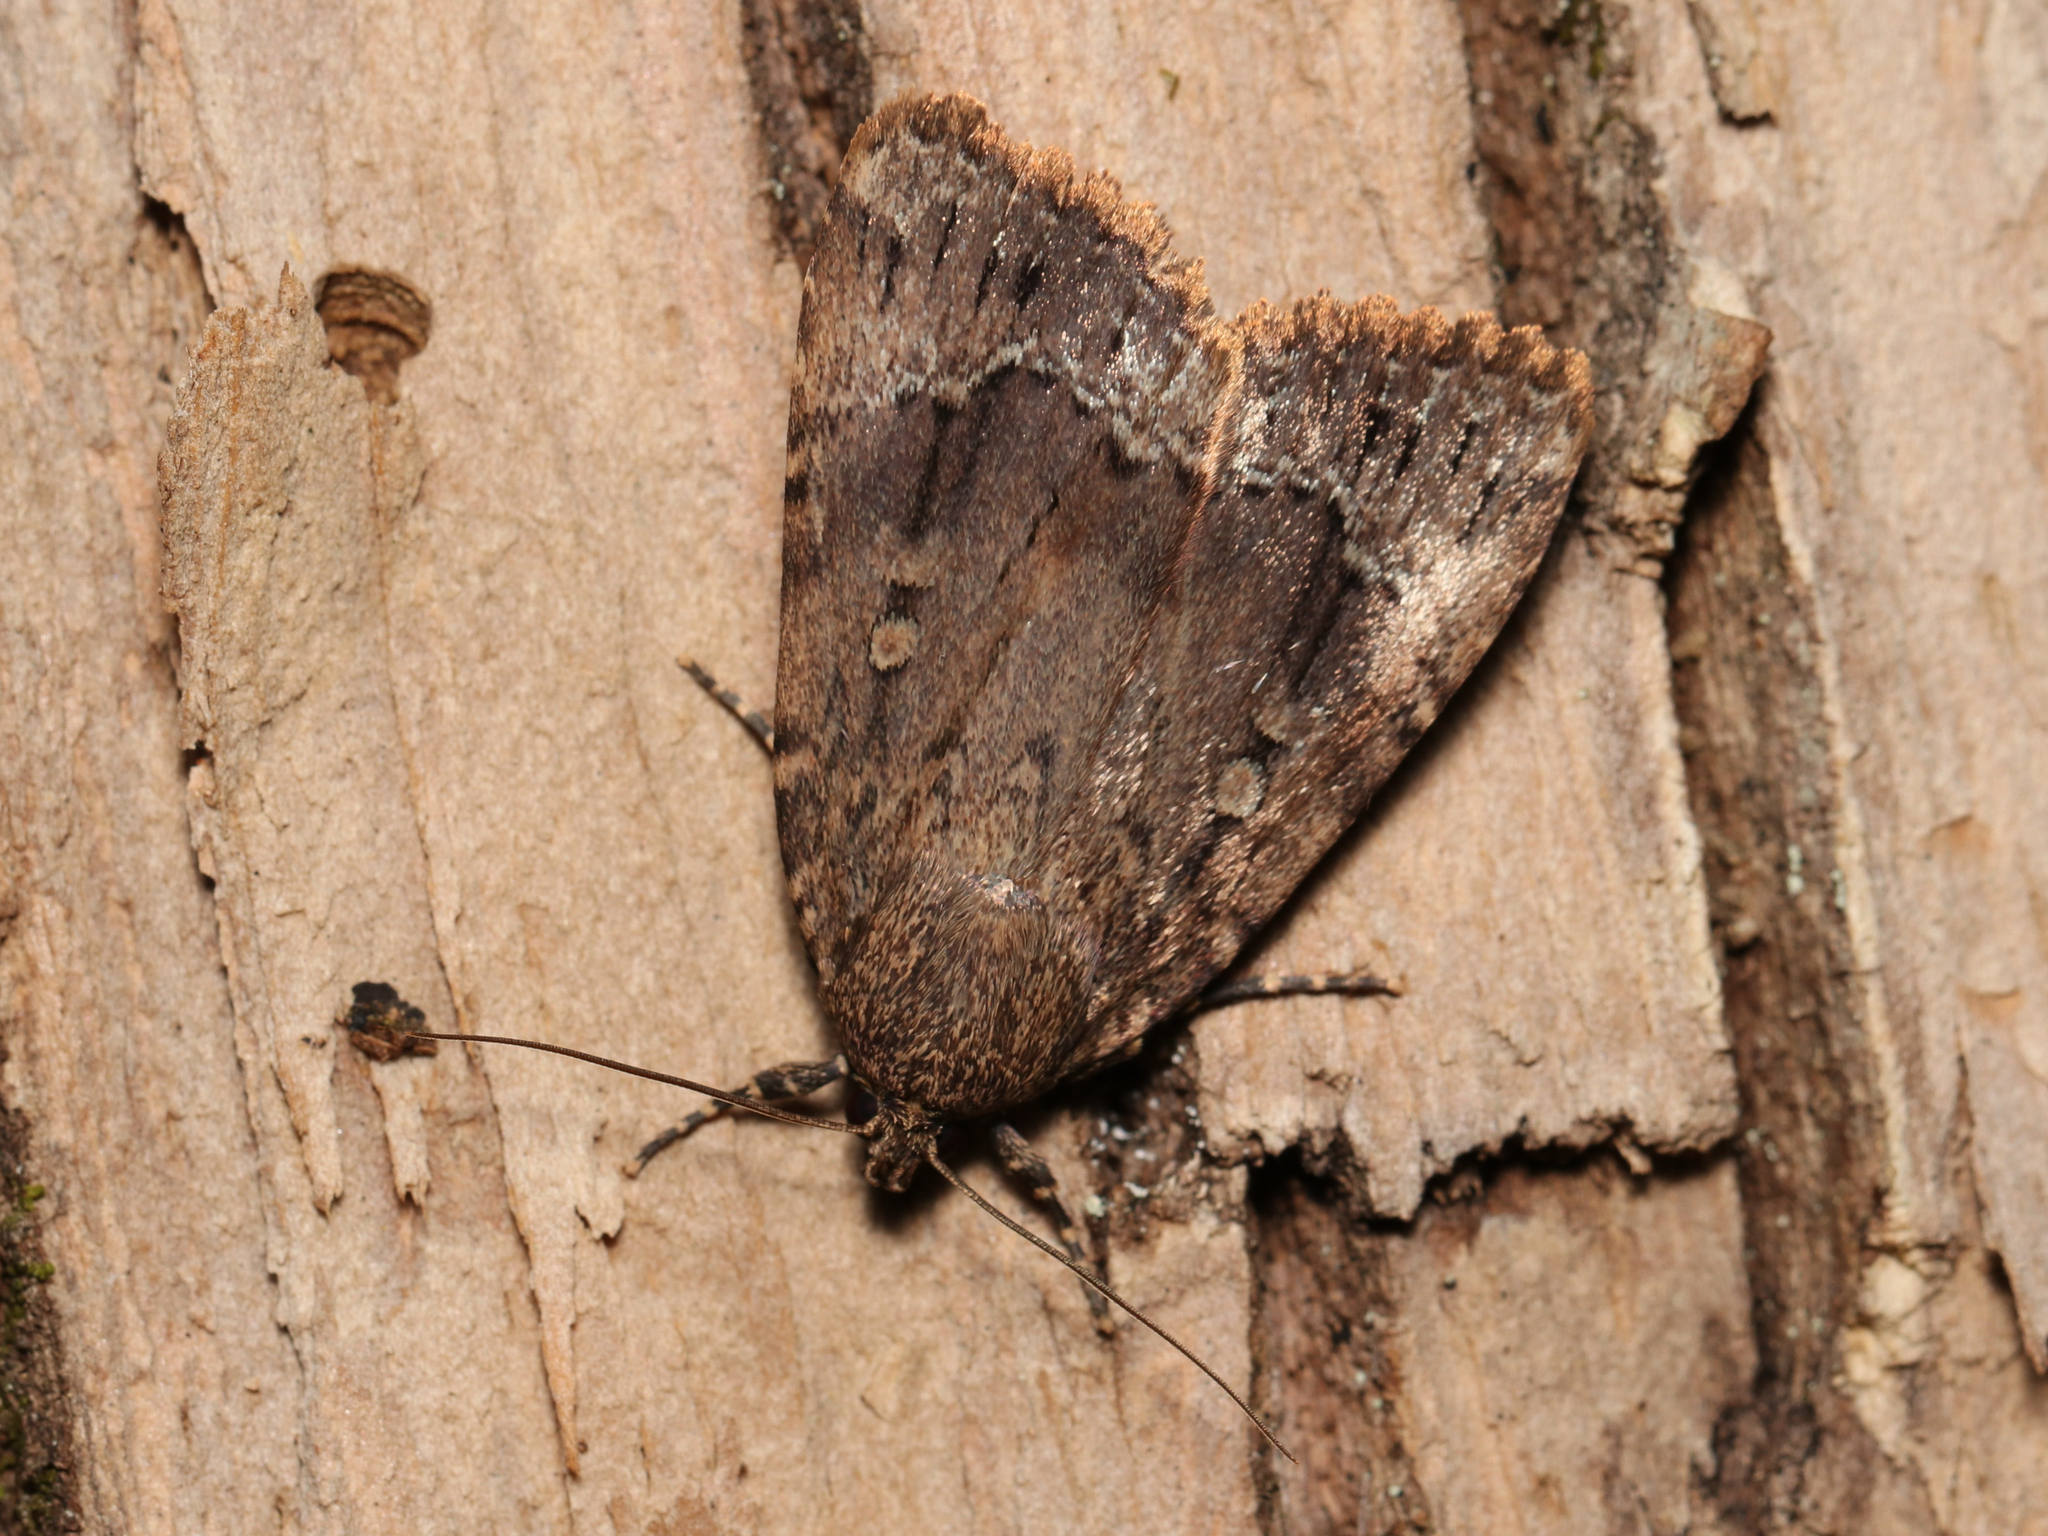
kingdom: Animalia
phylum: Arthropoda
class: Insecta
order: Lepidoptera
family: Noctuidae
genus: Amphipyra
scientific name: Amphipyra pyramidoides
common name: American copper underwing
